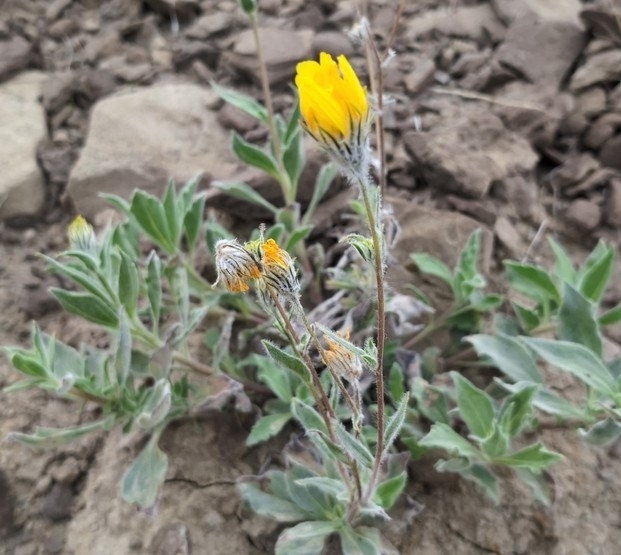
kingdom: Plantae
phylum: Tracheophyta
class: Magnoliopsida
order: Asterales
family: Asteraceae
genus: Geraea
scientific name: Geraea canescens
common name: Desert-gold
